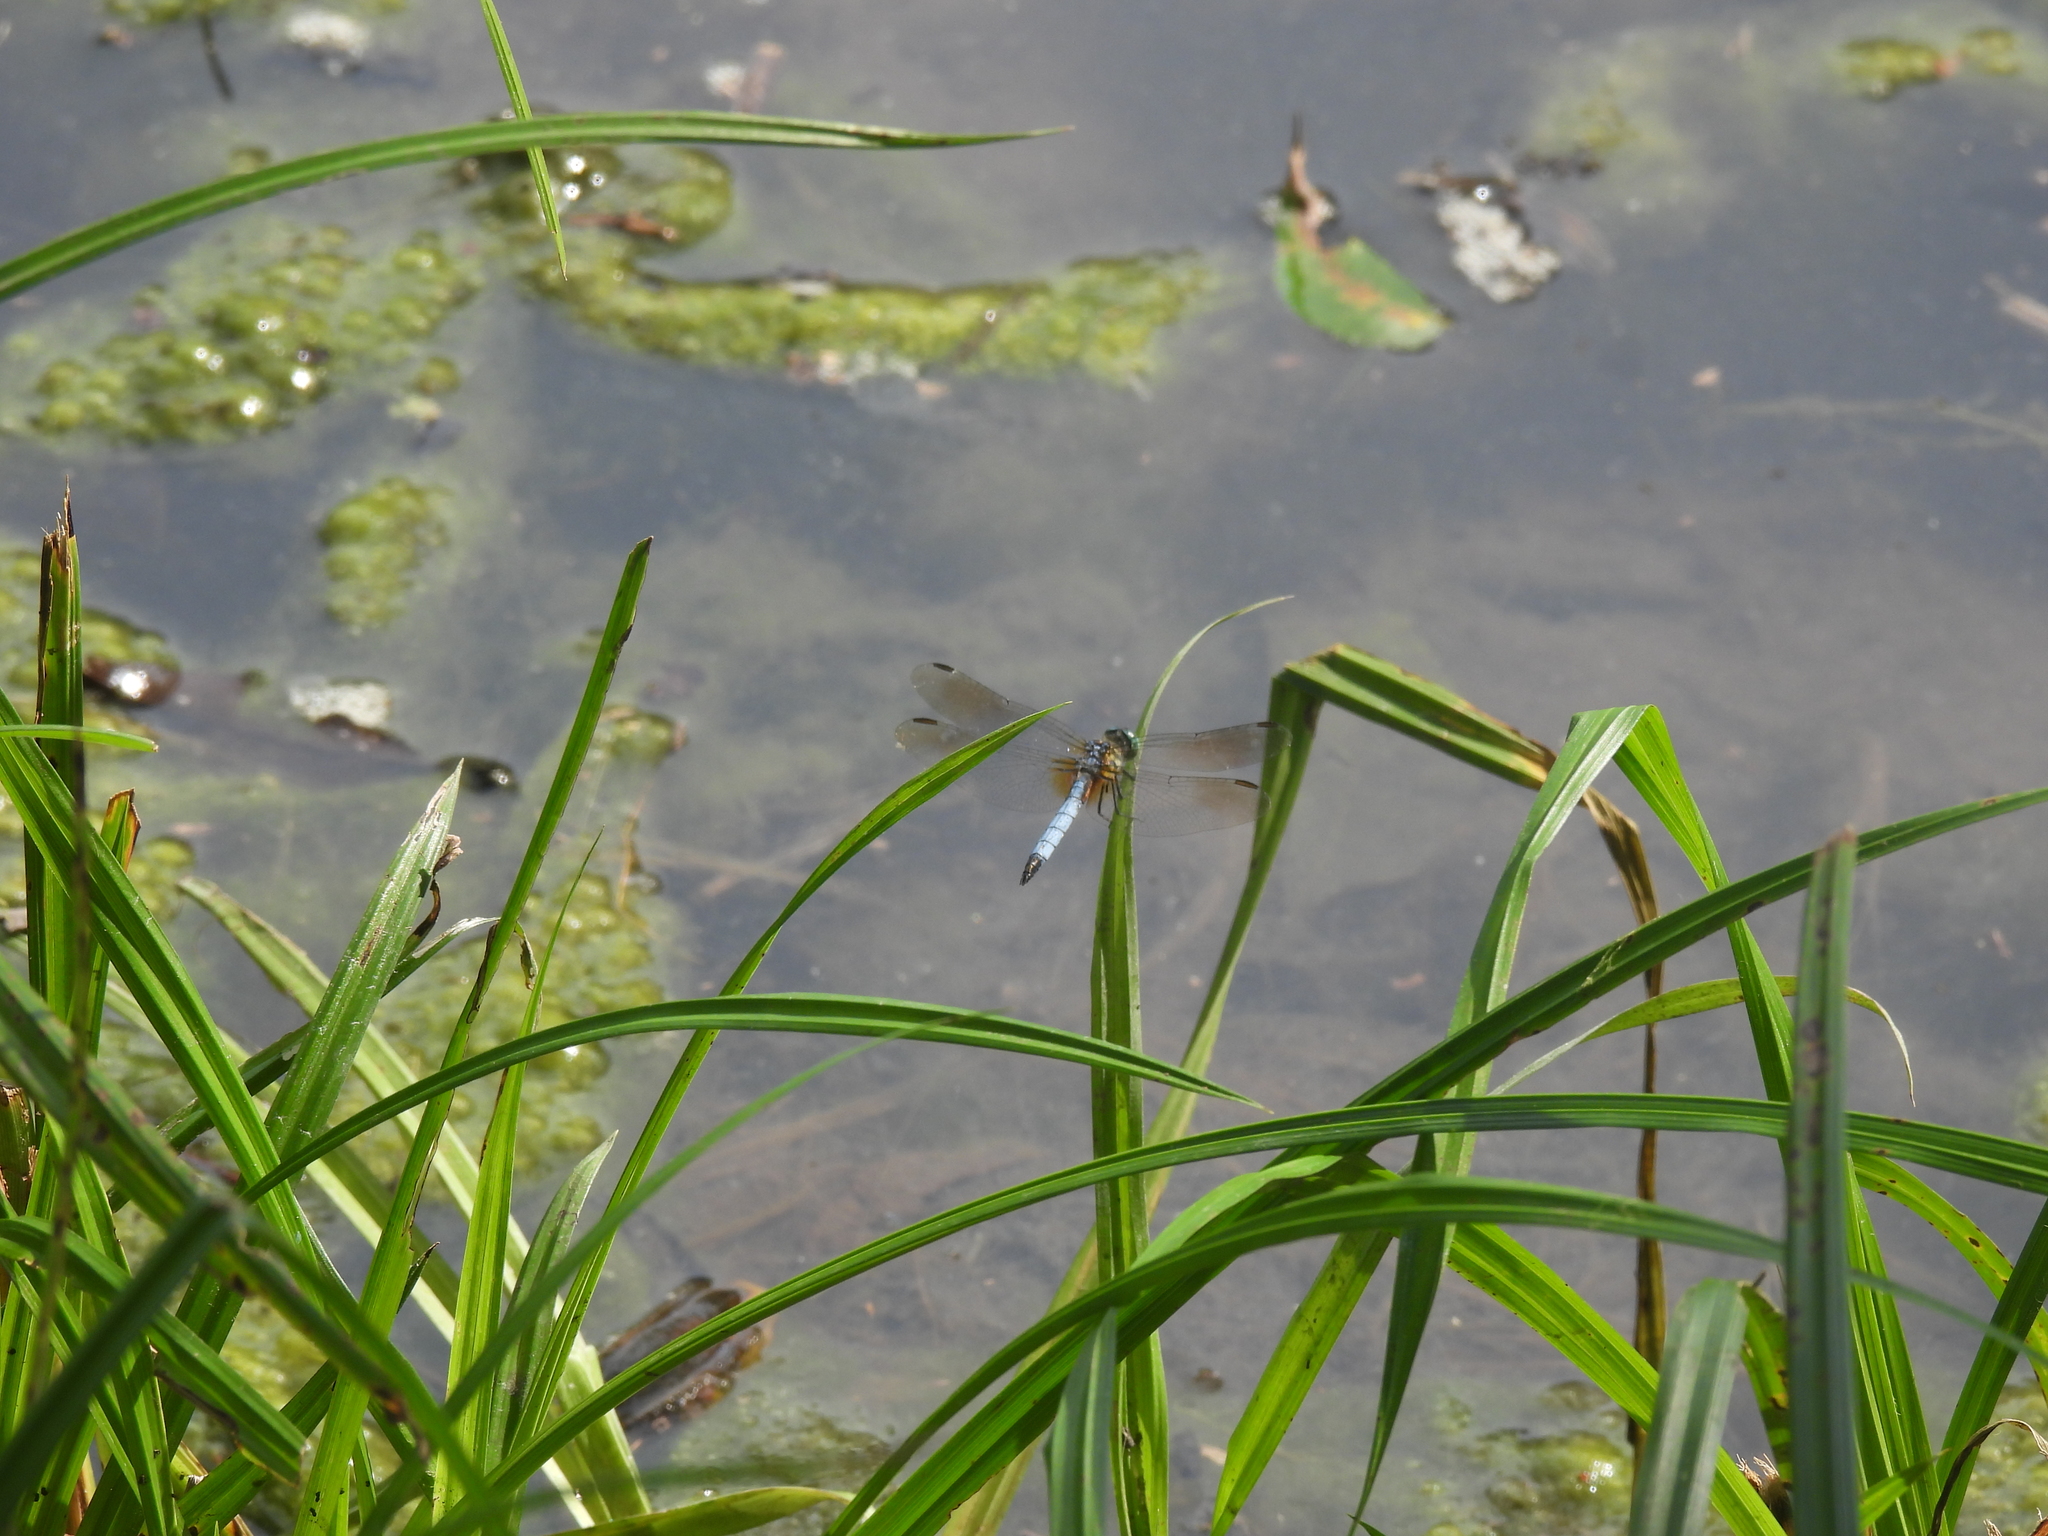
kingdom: Animalia
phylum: Arthropoda
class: Insecta
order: Odonata
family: Libellulidae
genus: Pachydiplax
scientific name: Pachydiplax longipennis
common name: Blue dasher
